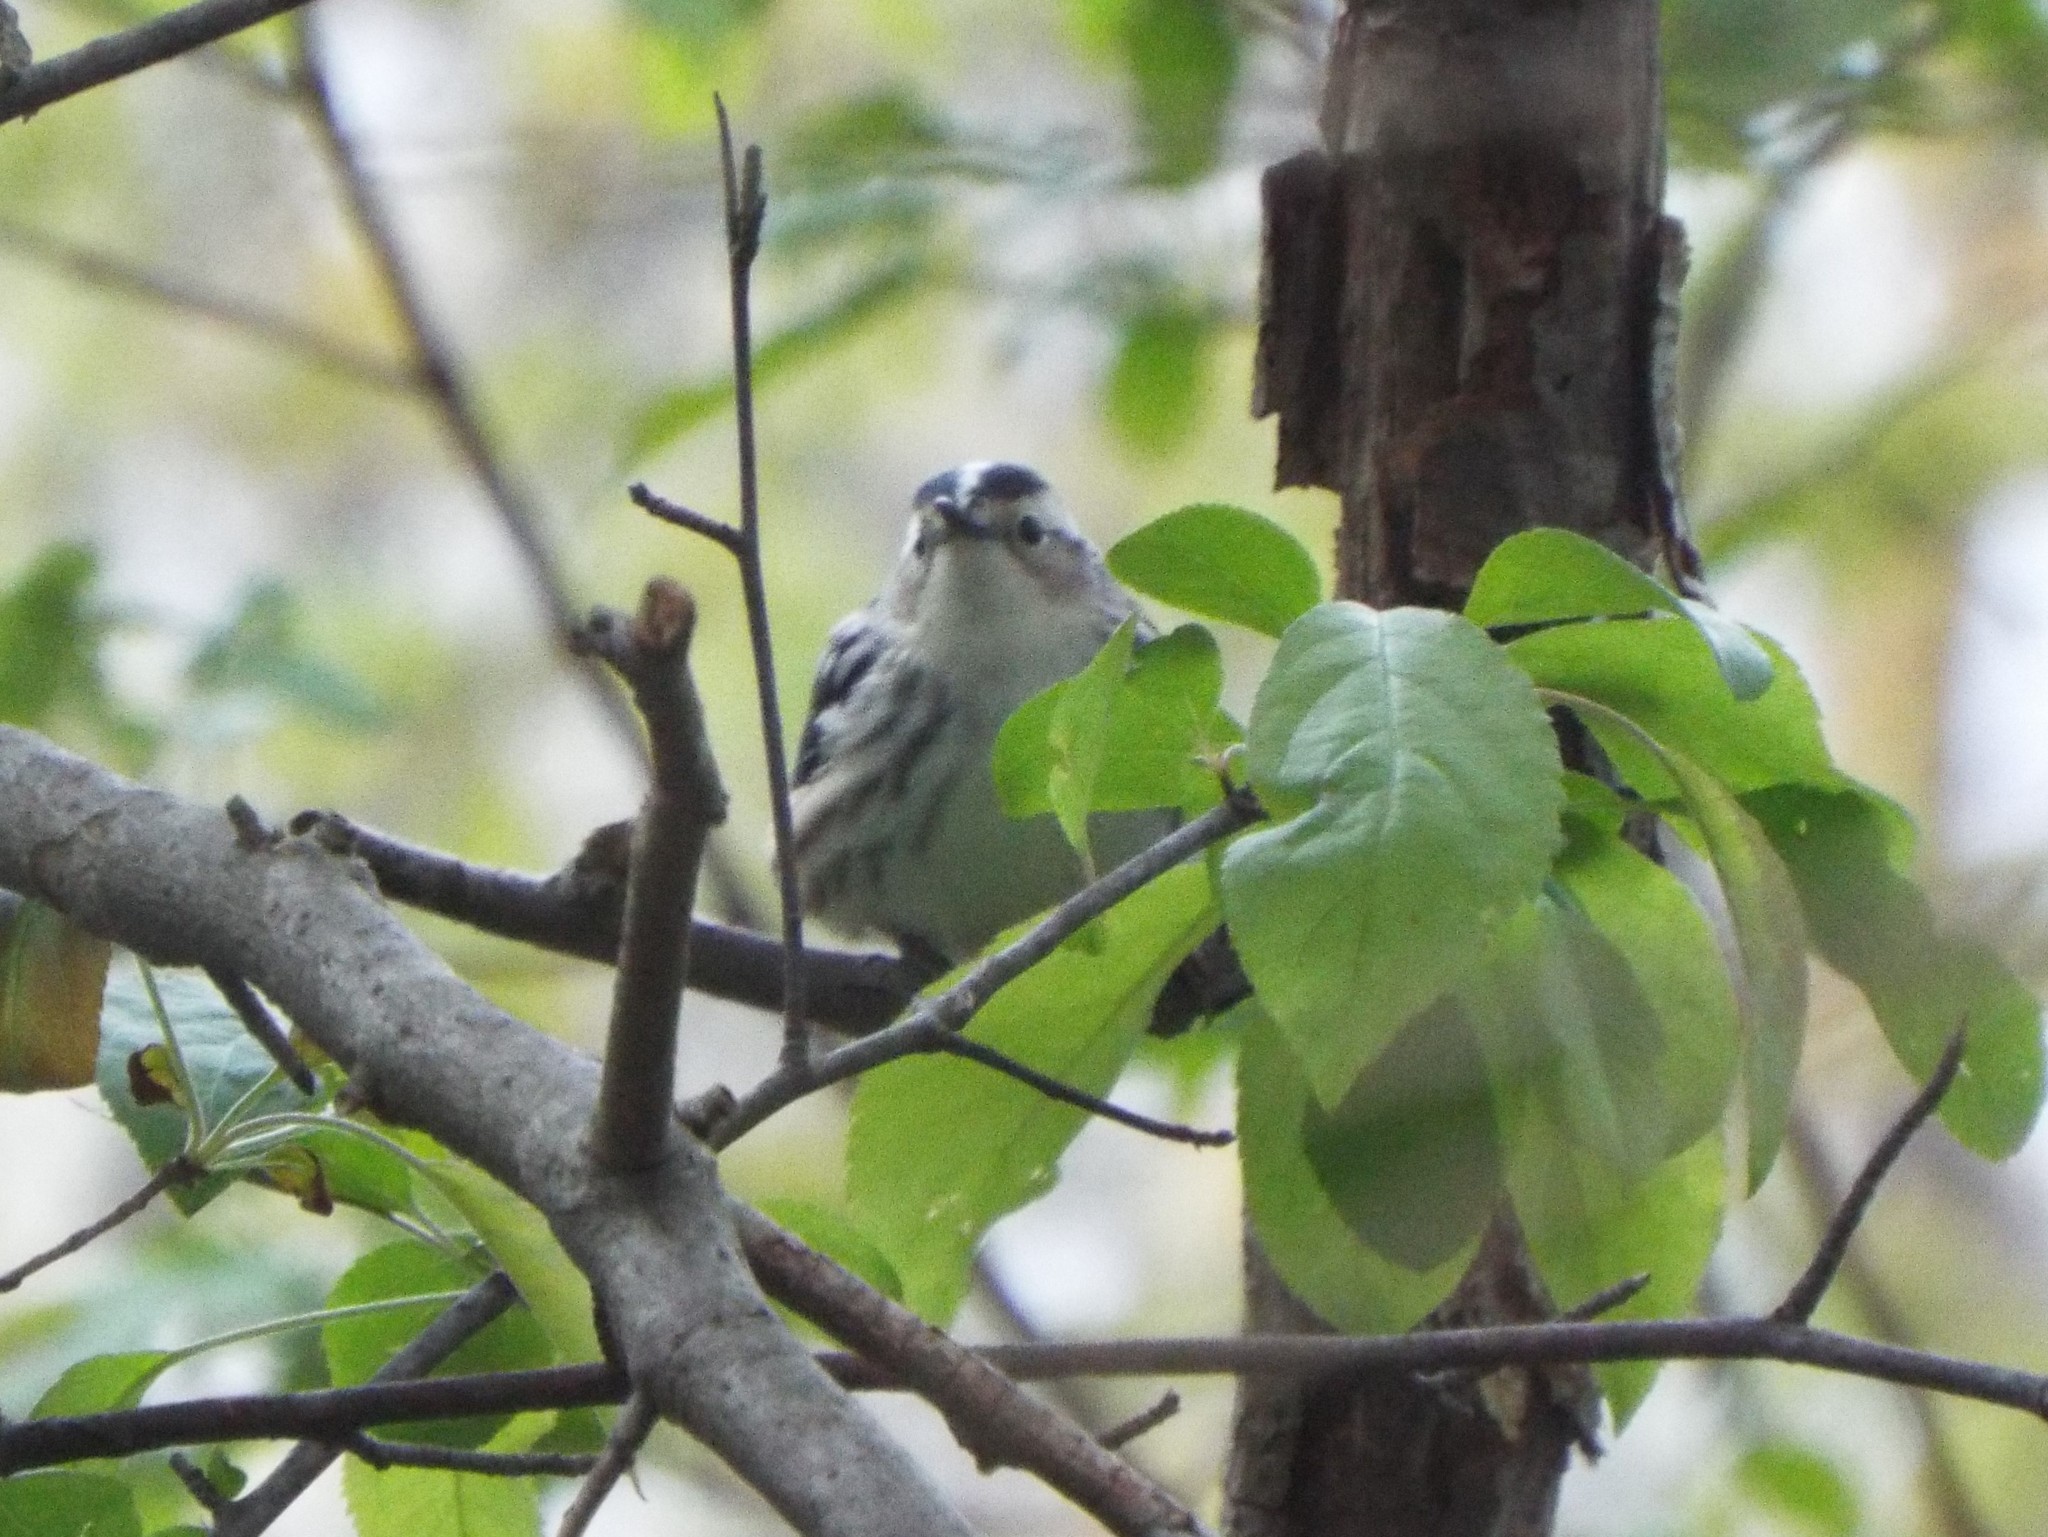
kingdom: Animalia
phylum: Chordata
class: Aves
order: Passeriformes
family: Parulidae
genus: Mniotilta
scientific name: Mniotilta varia
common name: Black-and-white warbler
